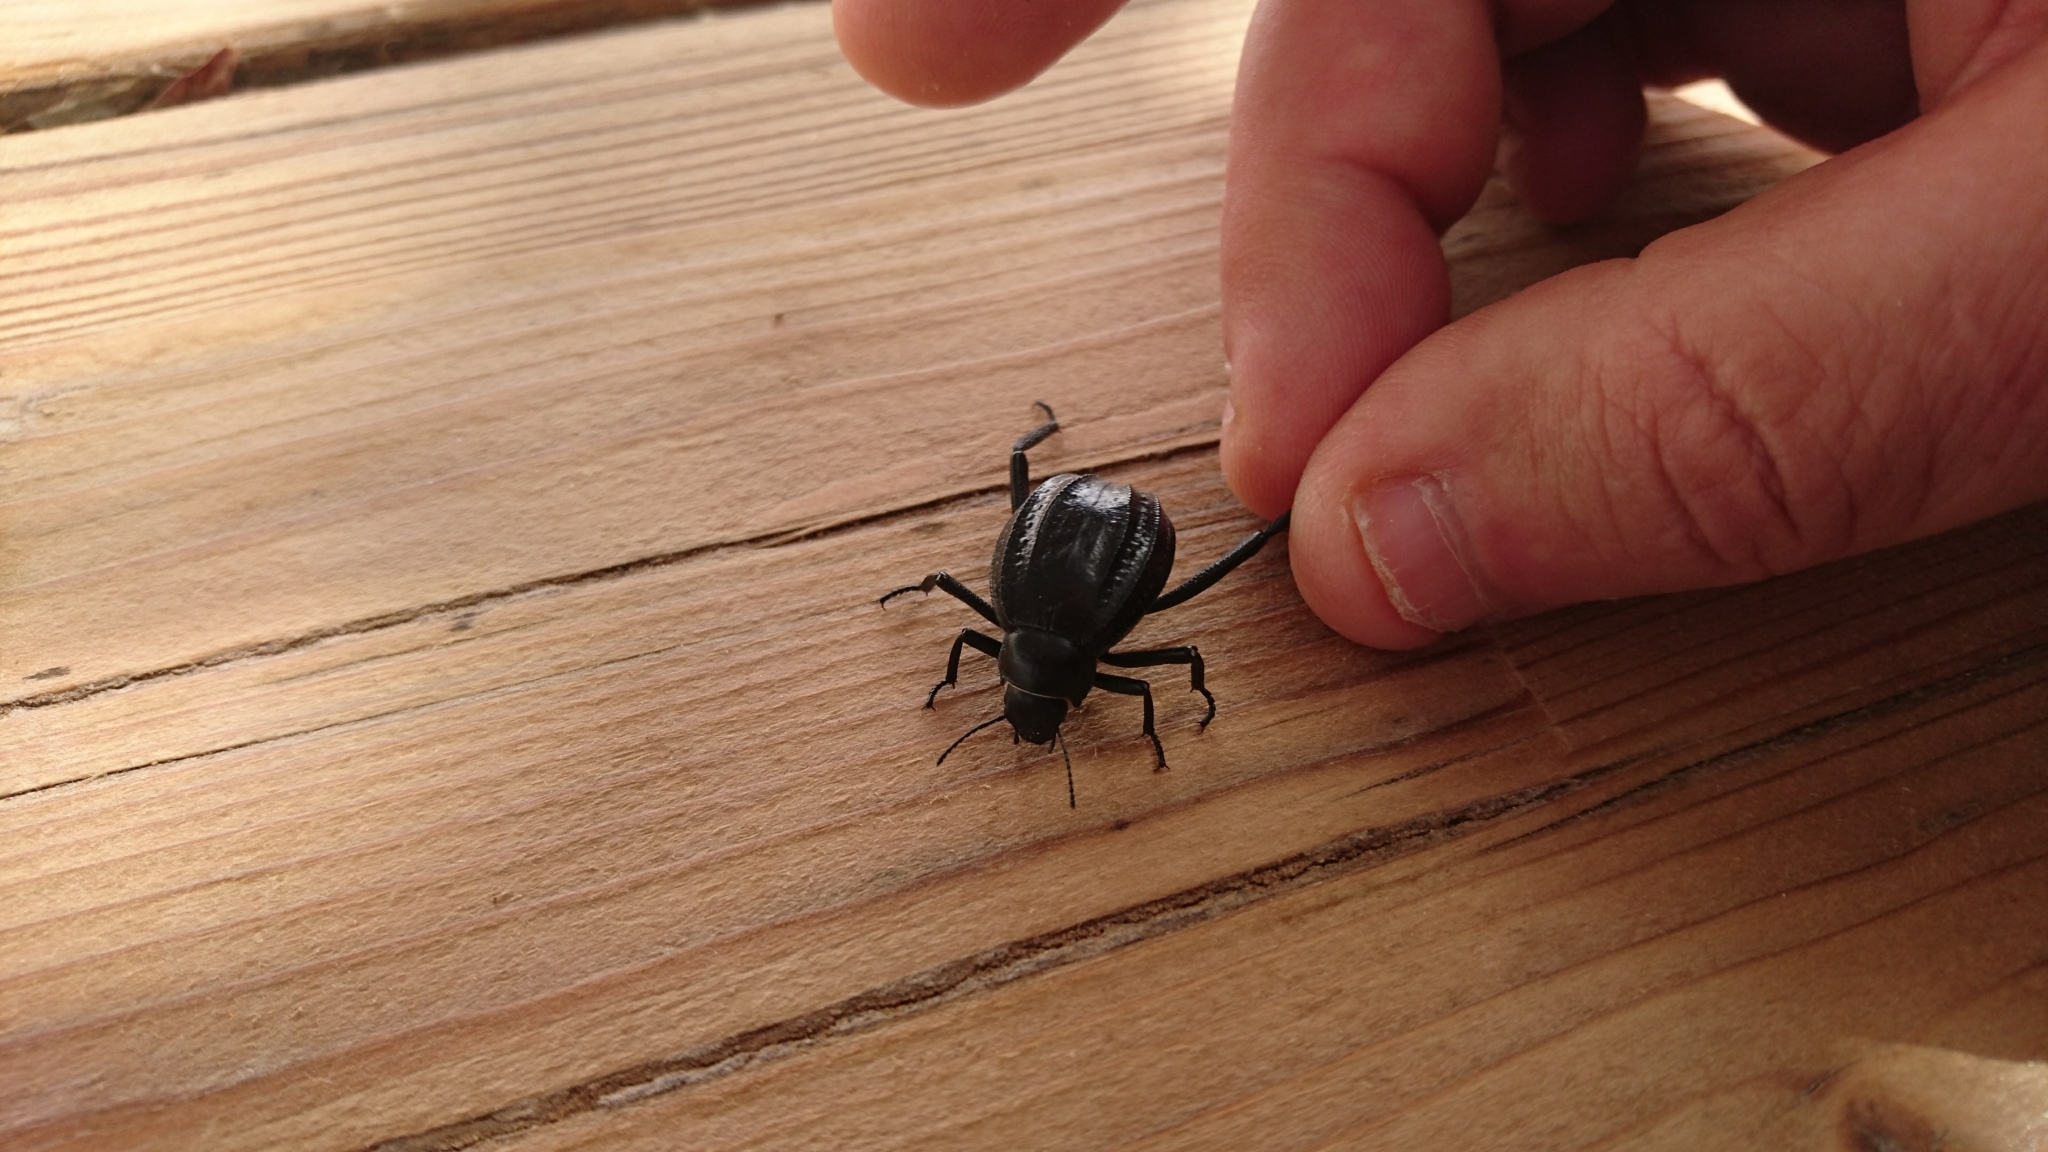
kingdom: Animalia
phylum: Arthropoda
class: Insecta
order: Coleoptera
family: Tenebrionidae
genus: Adesmia
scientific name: Adesmia
